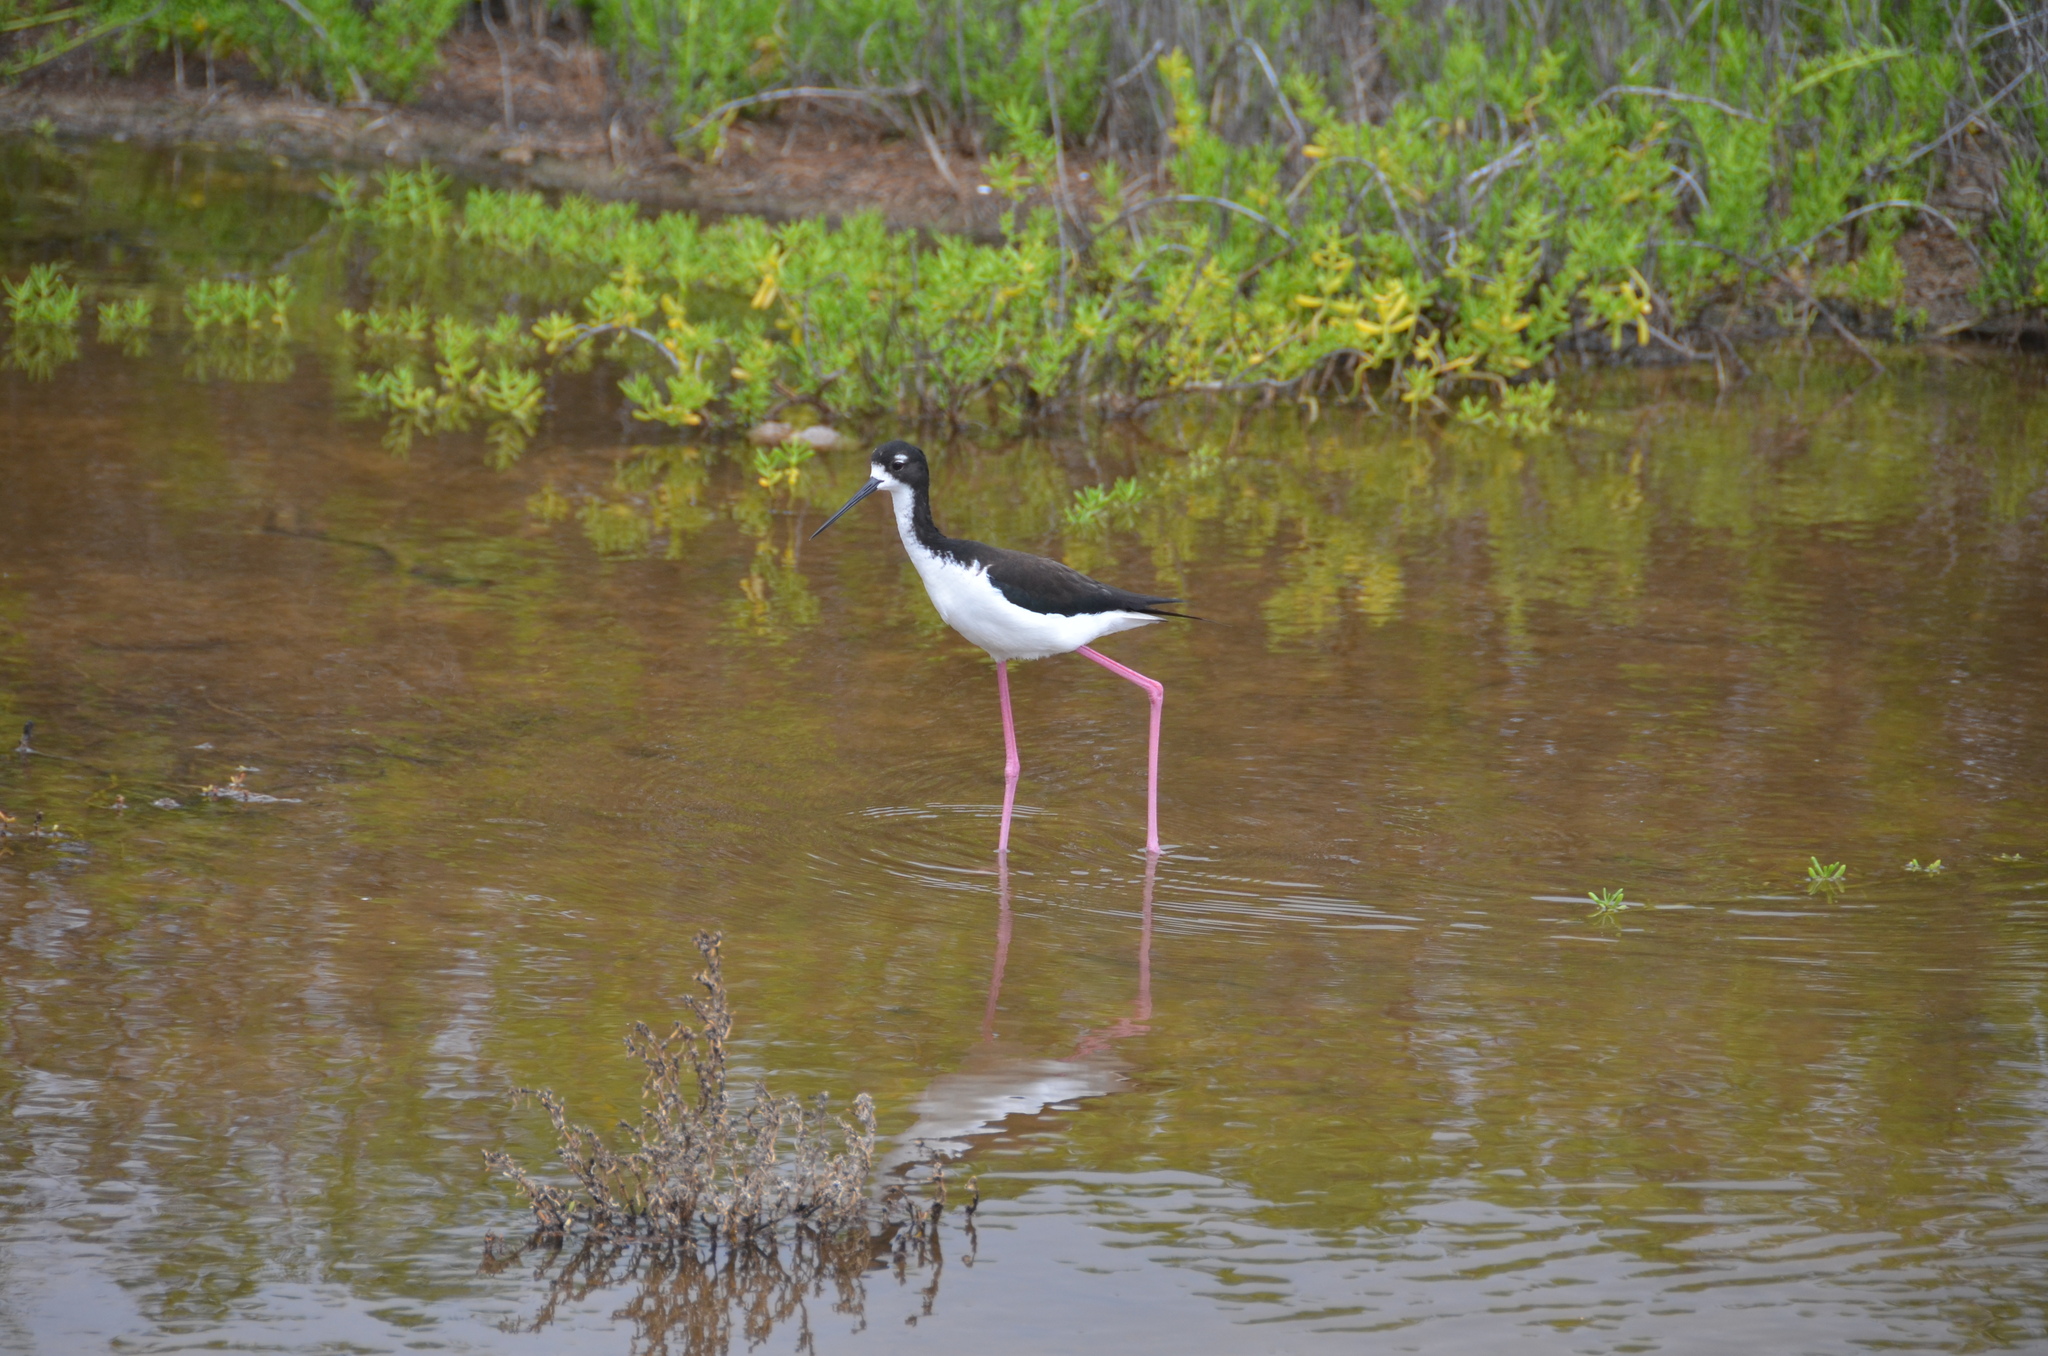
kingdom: Animalia
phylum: Chordata
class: Aves
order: Charadriiformes
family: Recurvirostridae
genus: Himantopus
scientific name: Himantopus mexicanus
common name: Black-necked stilt
